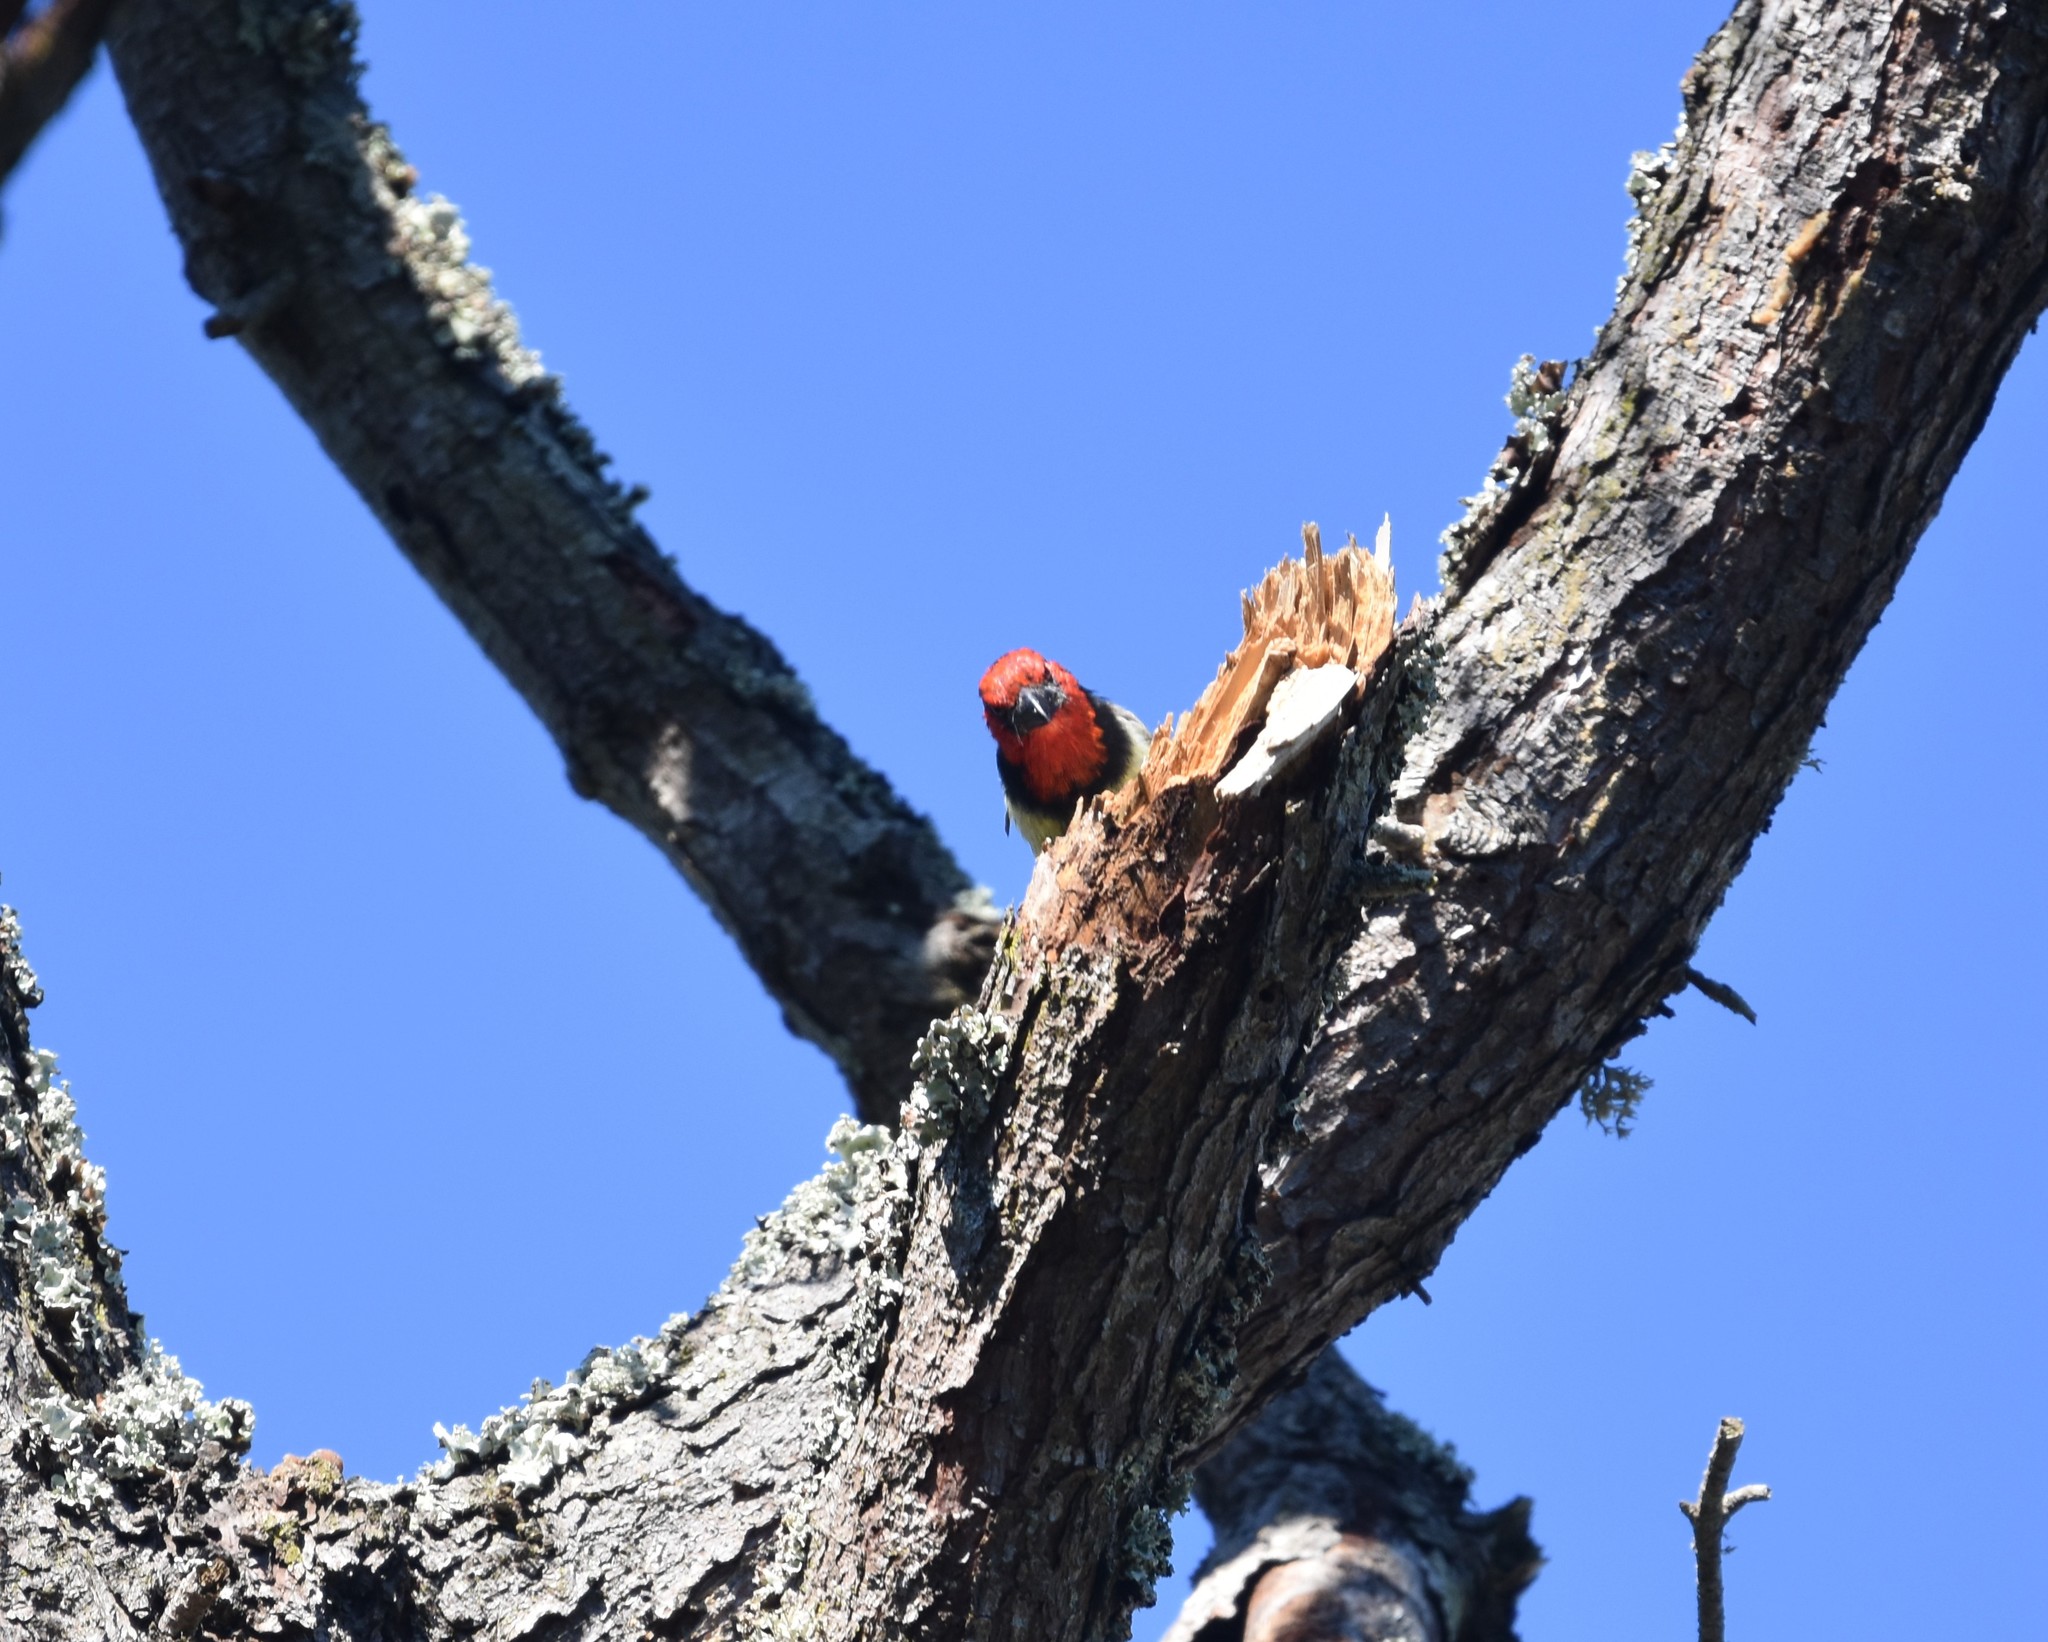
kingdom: Animalia
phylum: Chordata
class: Aves
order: Piciformes
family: Lybiidae
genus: Lybius
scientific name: Lybius torquatus
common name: Black-collared barbet
